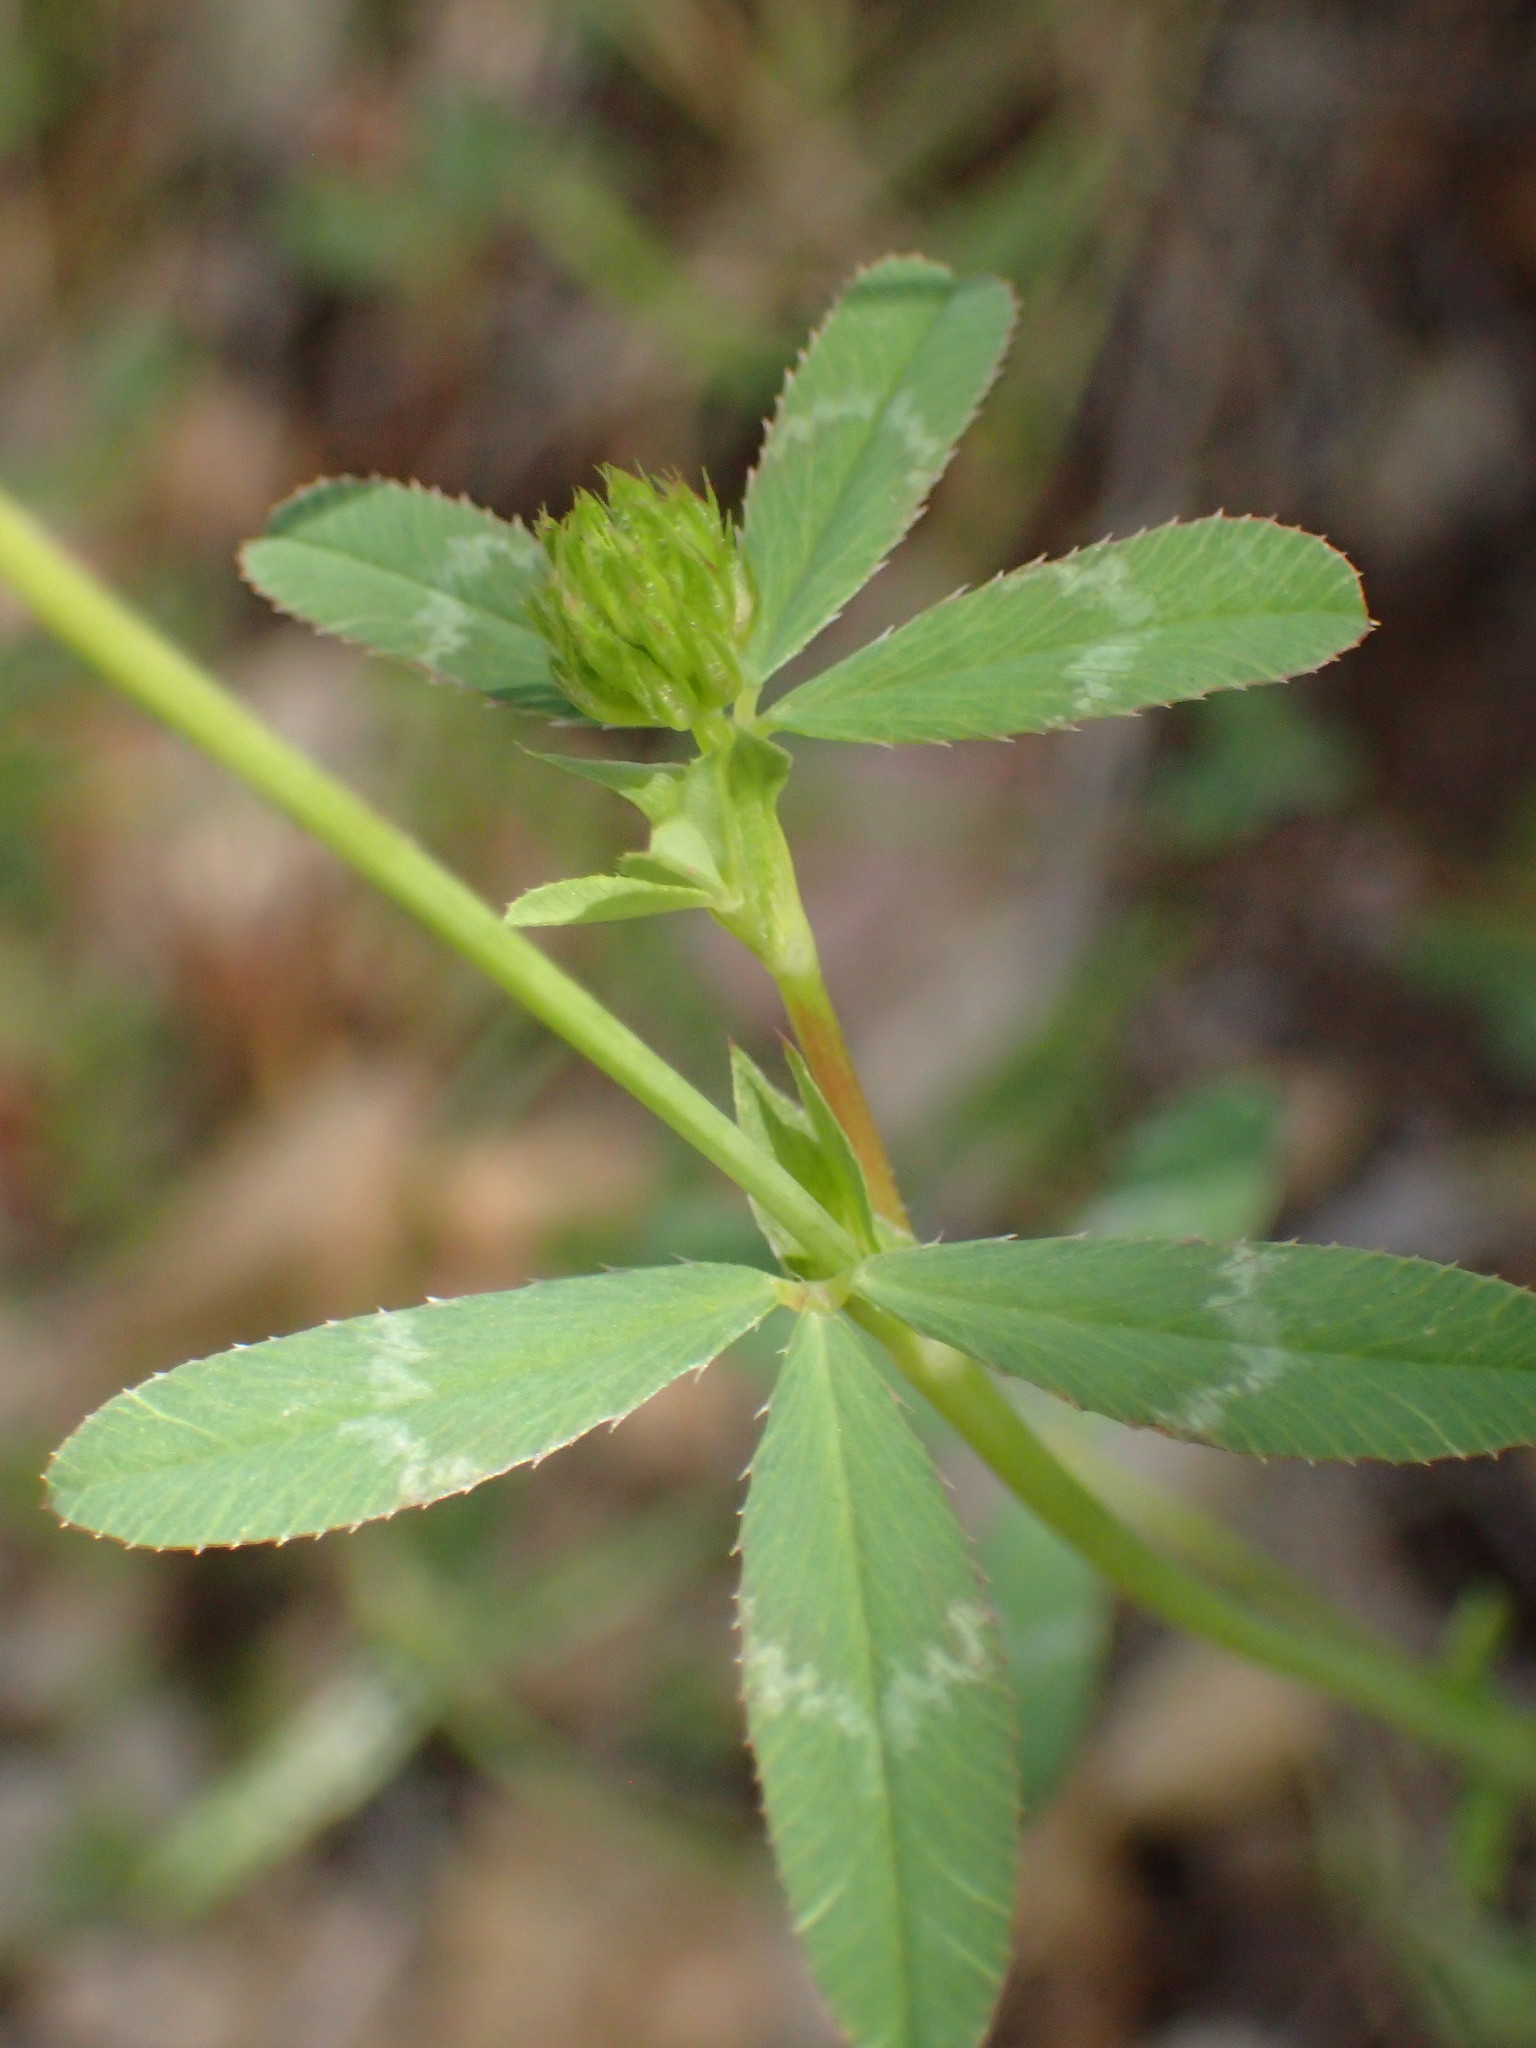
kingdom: Plantae
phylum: Tracheophyta
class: Magnoliopsida
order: Fabales
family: Fabaceae
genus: Trifolium
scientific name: Trifolium ciliolatum
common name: Foothill clover
